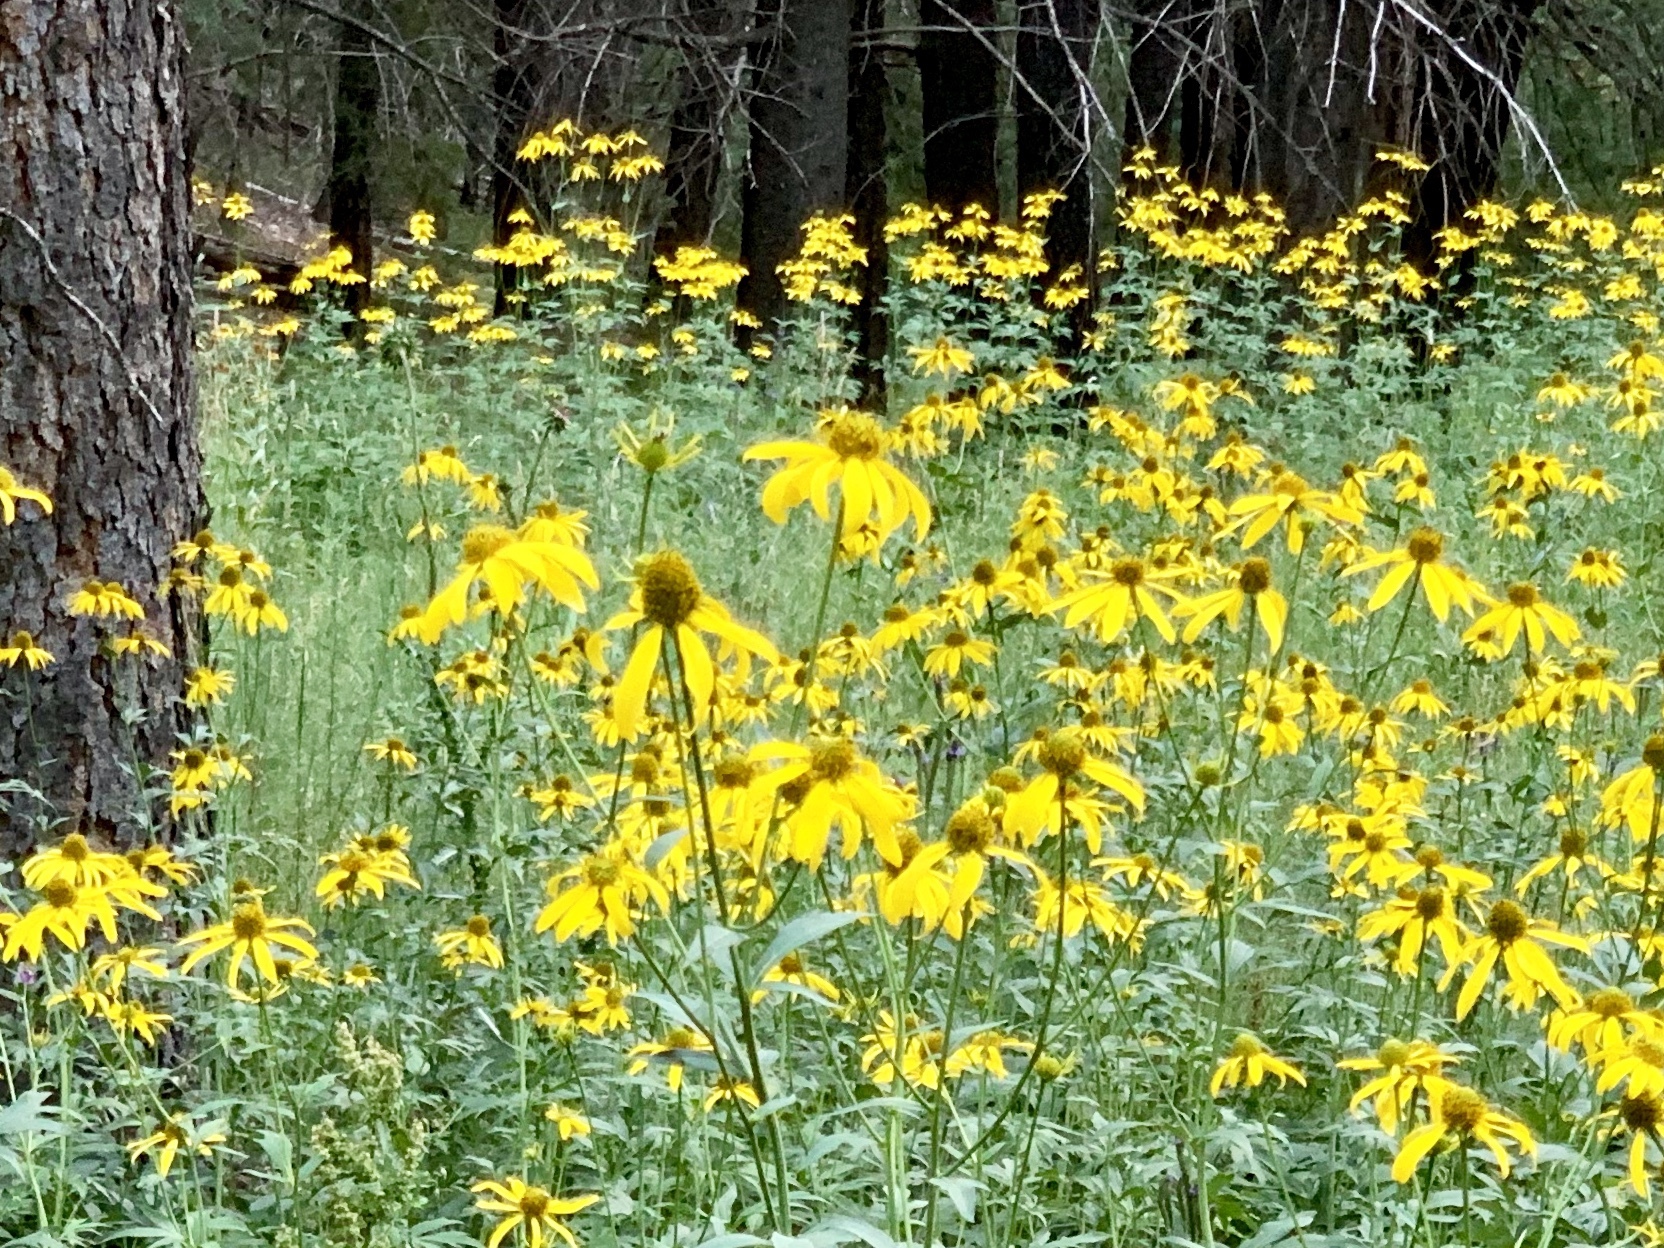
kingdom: Plantae
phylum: Tracheophyta
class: Magnoliopsida
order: Asterales
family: Asteraceae
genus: Rudbeckia
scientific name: Rudbeckia laciniata
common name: Coneflower
